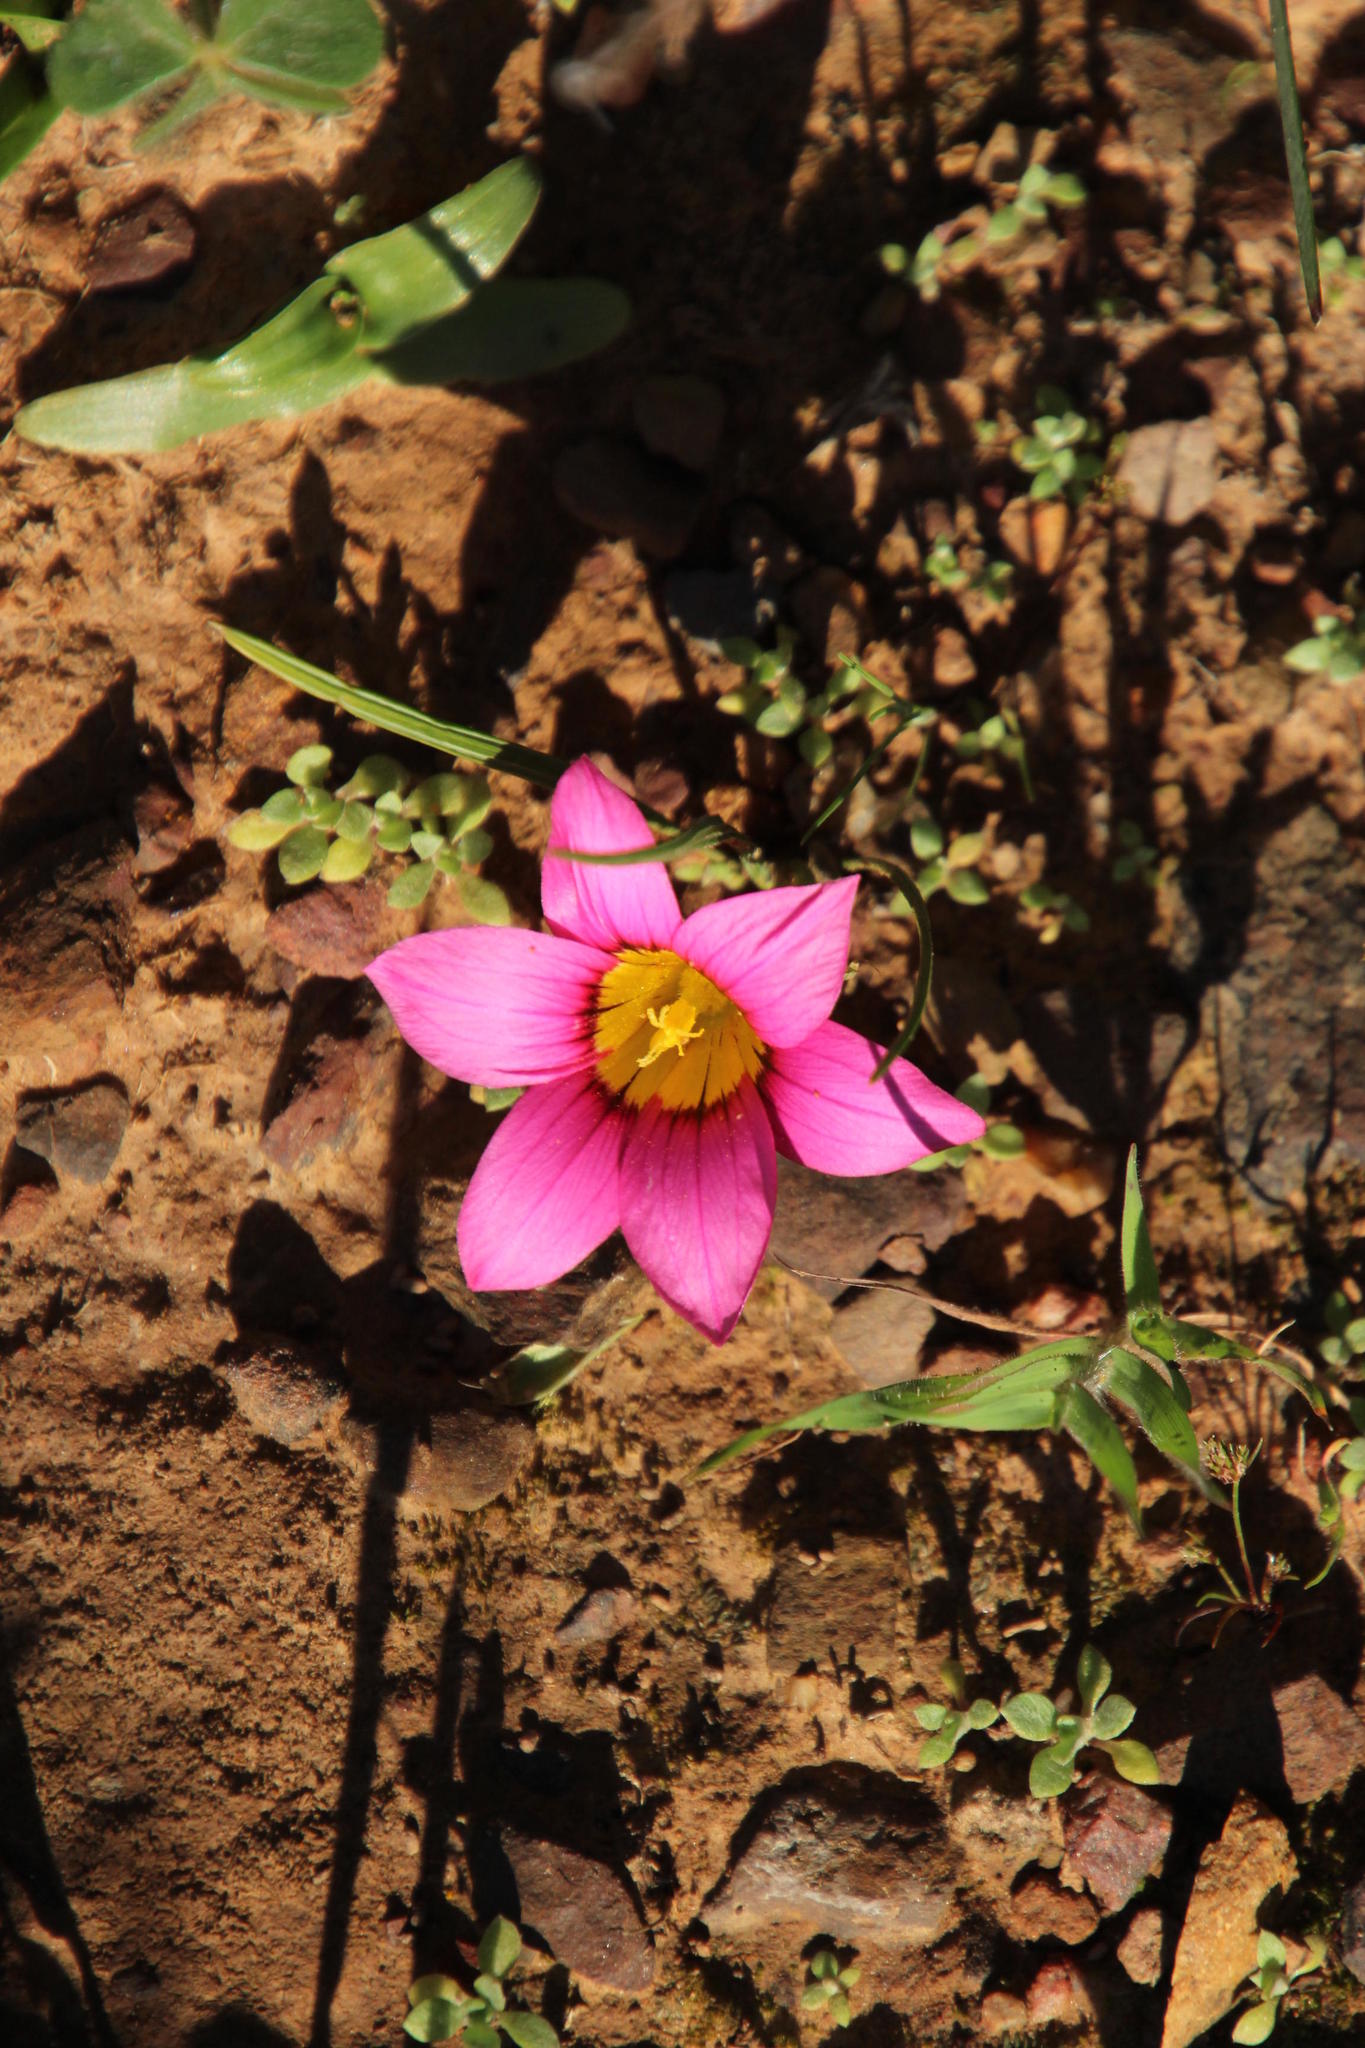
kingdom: Plantae
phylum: Tracheophyta
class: Liliopsida
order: Asparagales
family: Iridaceae
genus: Romulea
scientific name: Romulea hirsuta
